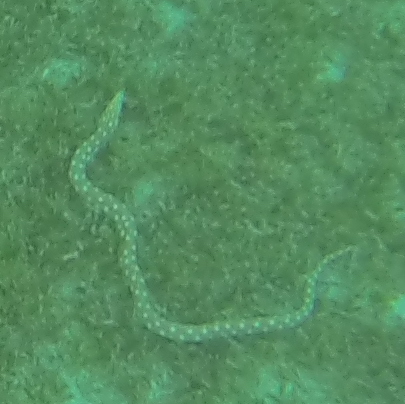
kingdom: Animalia
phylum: Chordata
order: Anguilliformes
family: Ophichthidae
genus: Myrichthys
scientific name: Myrichthys breviceps
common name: Sharptail eel
